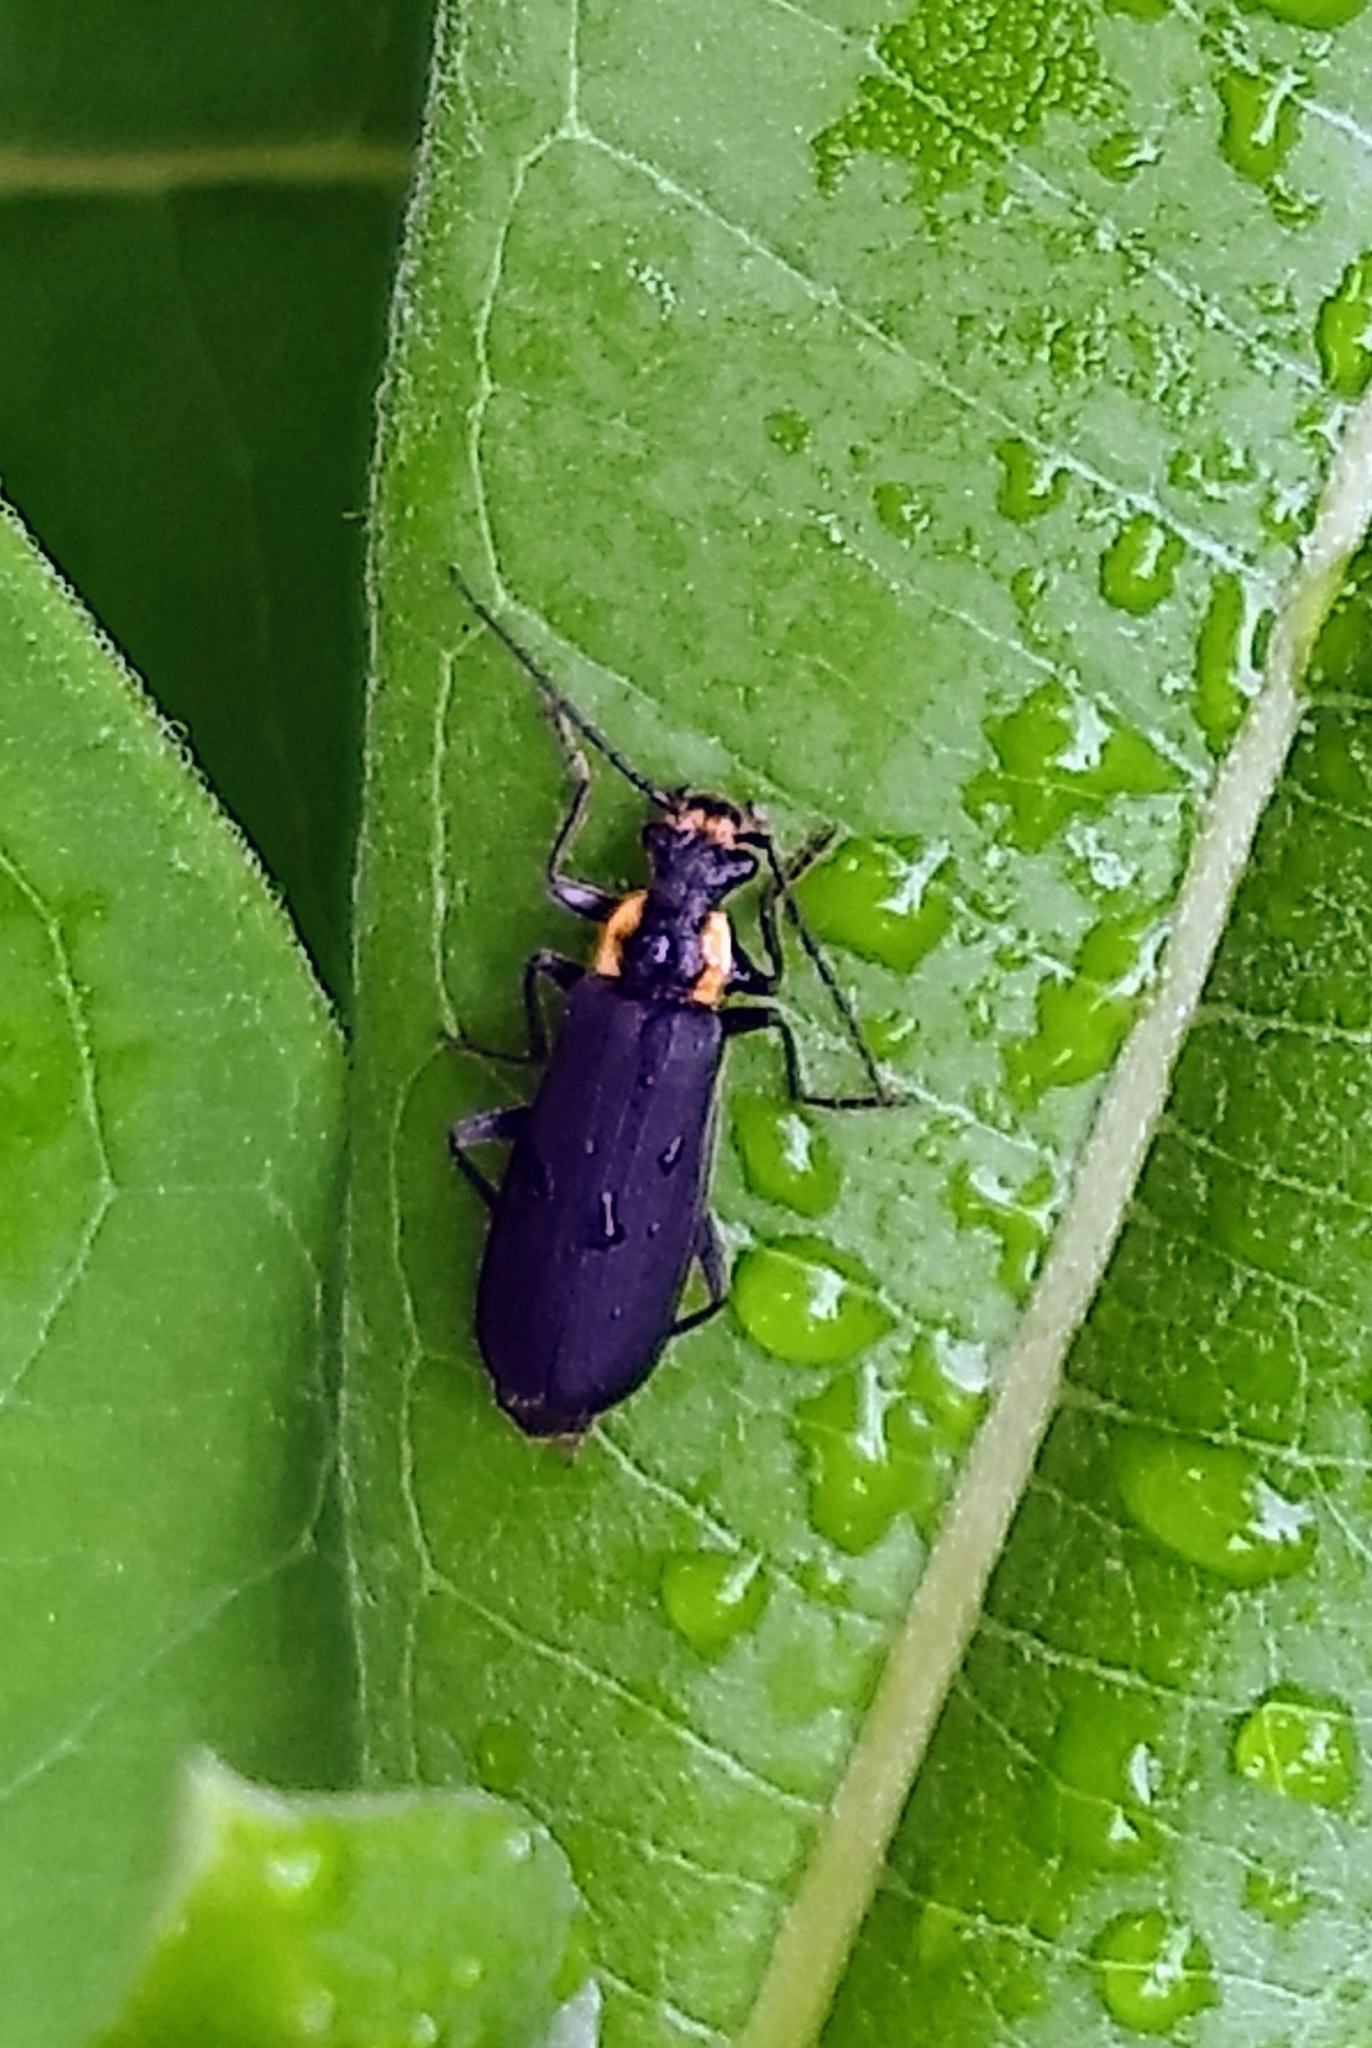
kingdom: Animalia
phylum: Arthropoda
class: Insecta
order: Coleoptera
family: Cantharidae
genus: Podabrus
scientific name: Podabrus rugosulus
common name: Wrinkled soldier beetle
